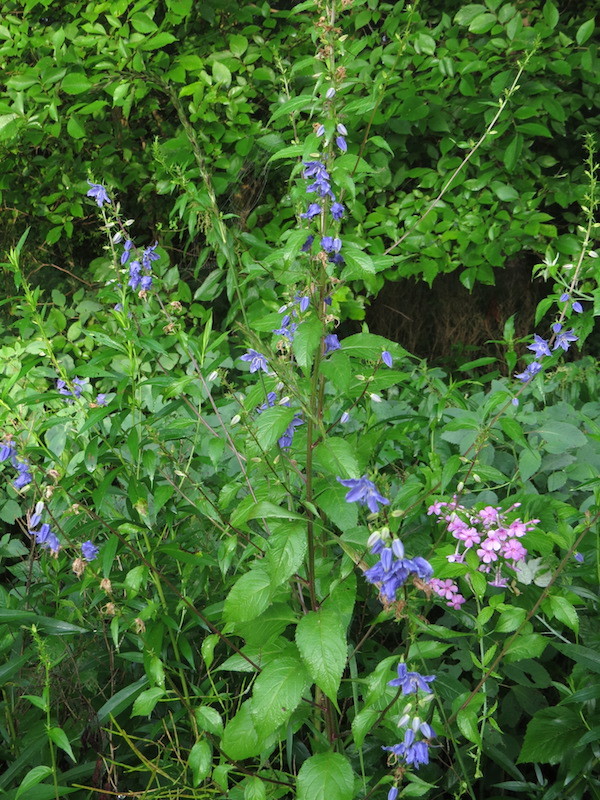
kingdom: Plantae
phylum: Tracheophyta
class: Magnoliopsida
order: Asterales
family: Campanulaceae
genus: Campanulastrum
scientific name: Campanulastrum americanum
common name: American bellflower
